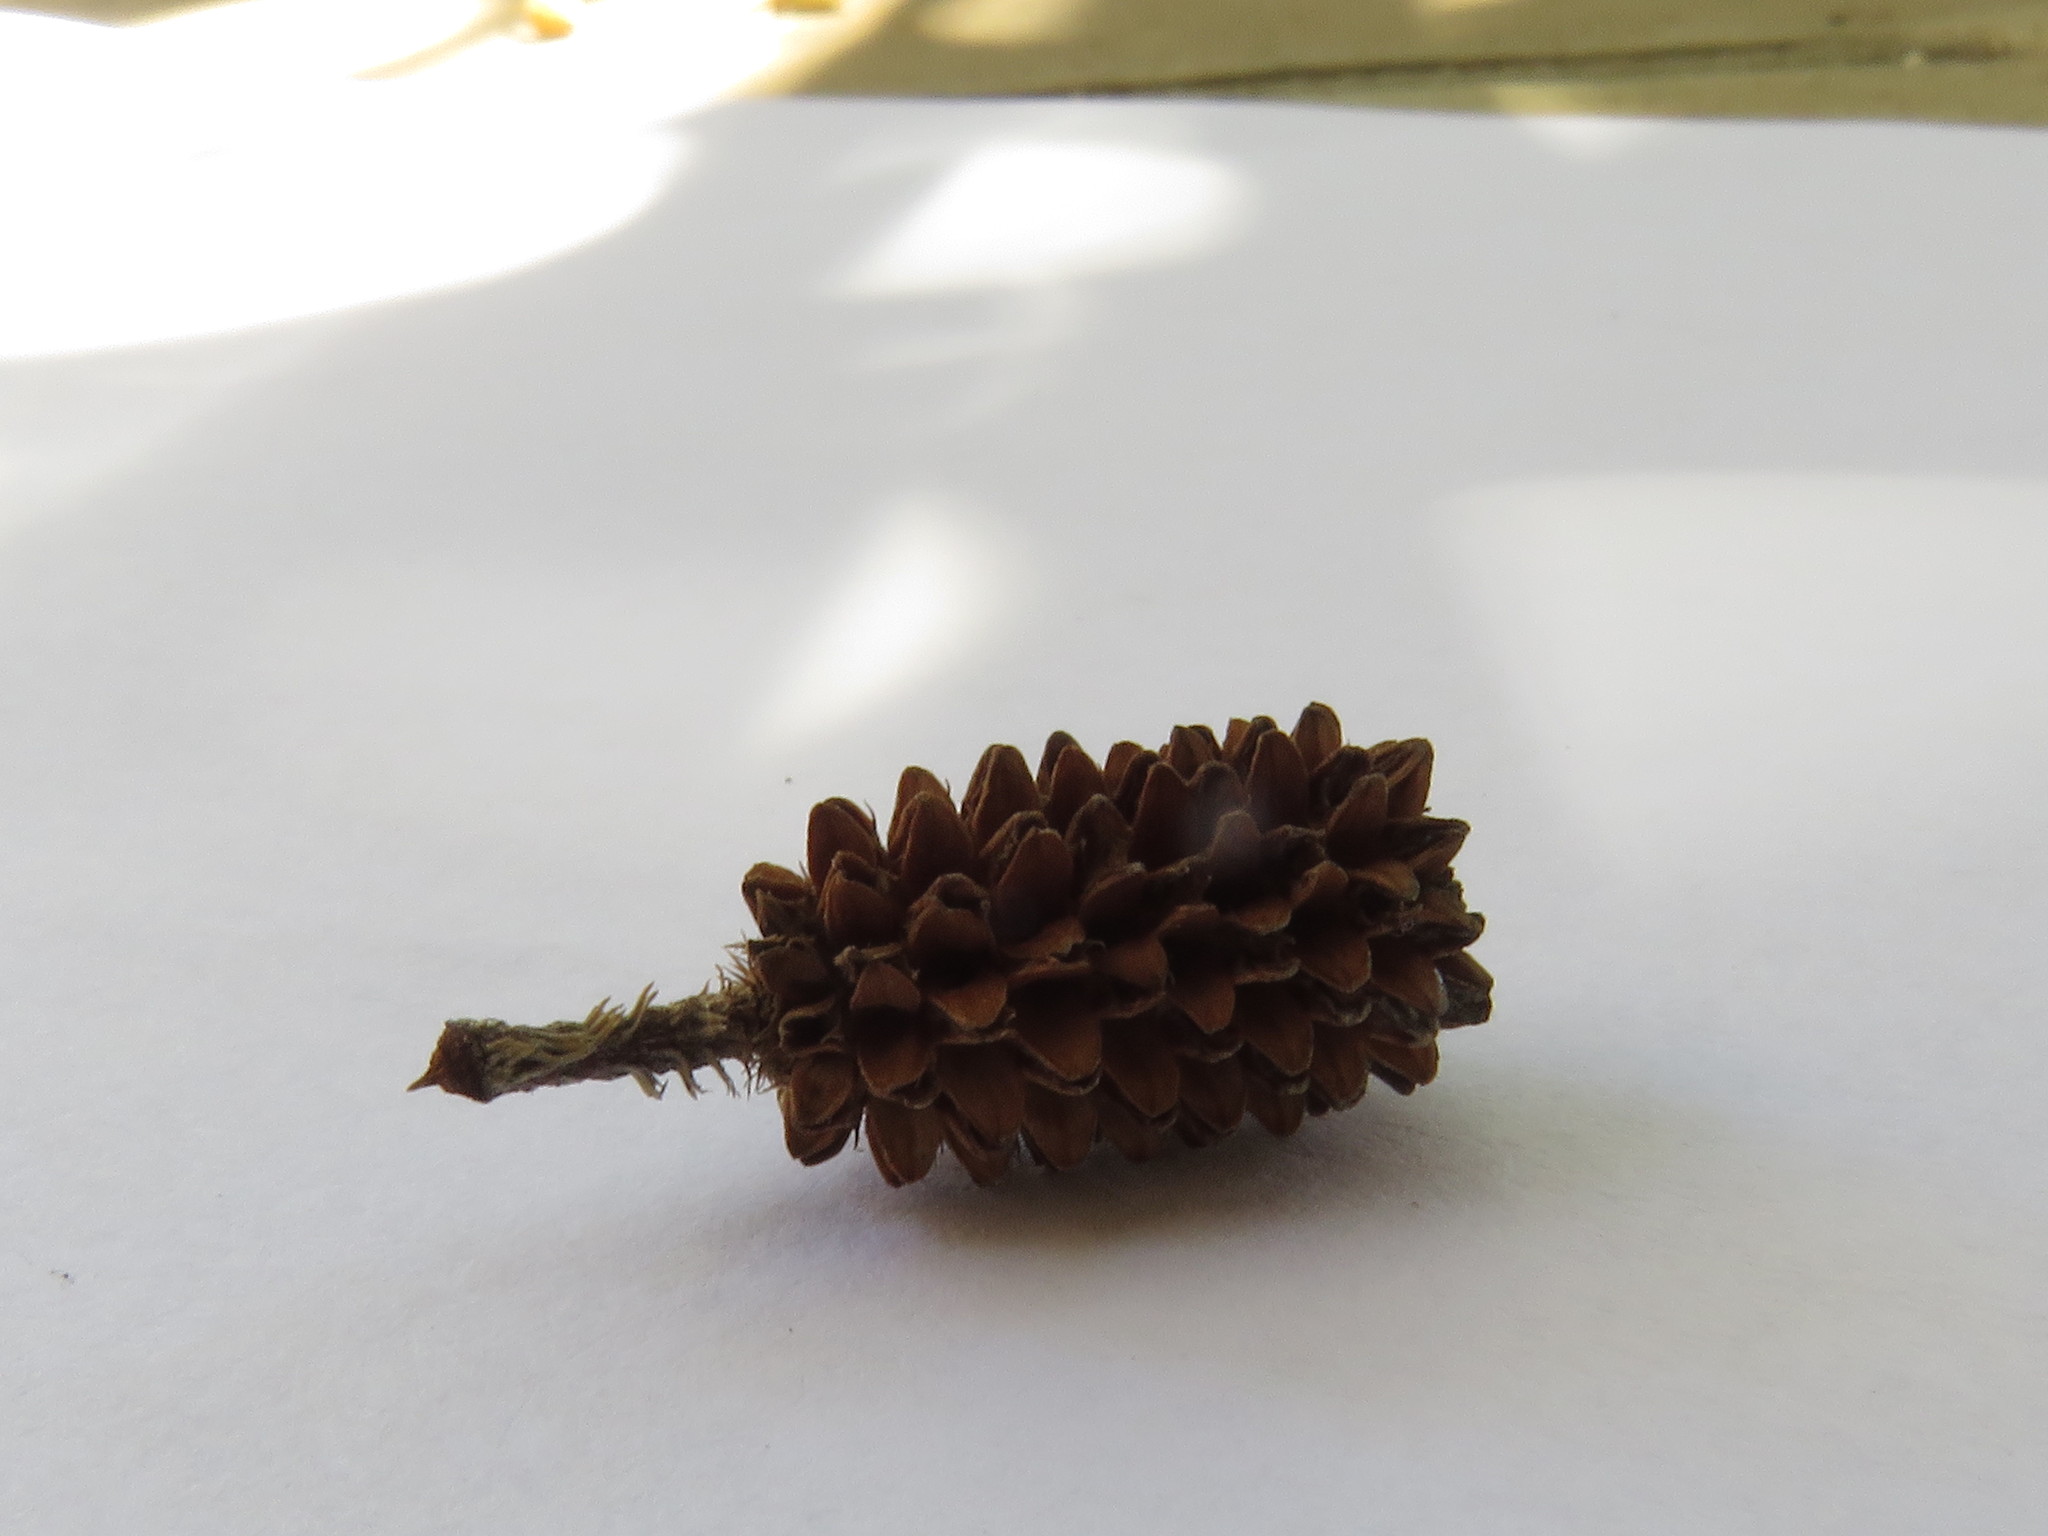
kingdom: Plantae
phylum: Tracheophyta
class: Magnoliopsida
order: Fagales
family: Casuarinaceae
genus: Casuarina
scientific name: Casuarina cunninghamiana
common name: River sheoak
